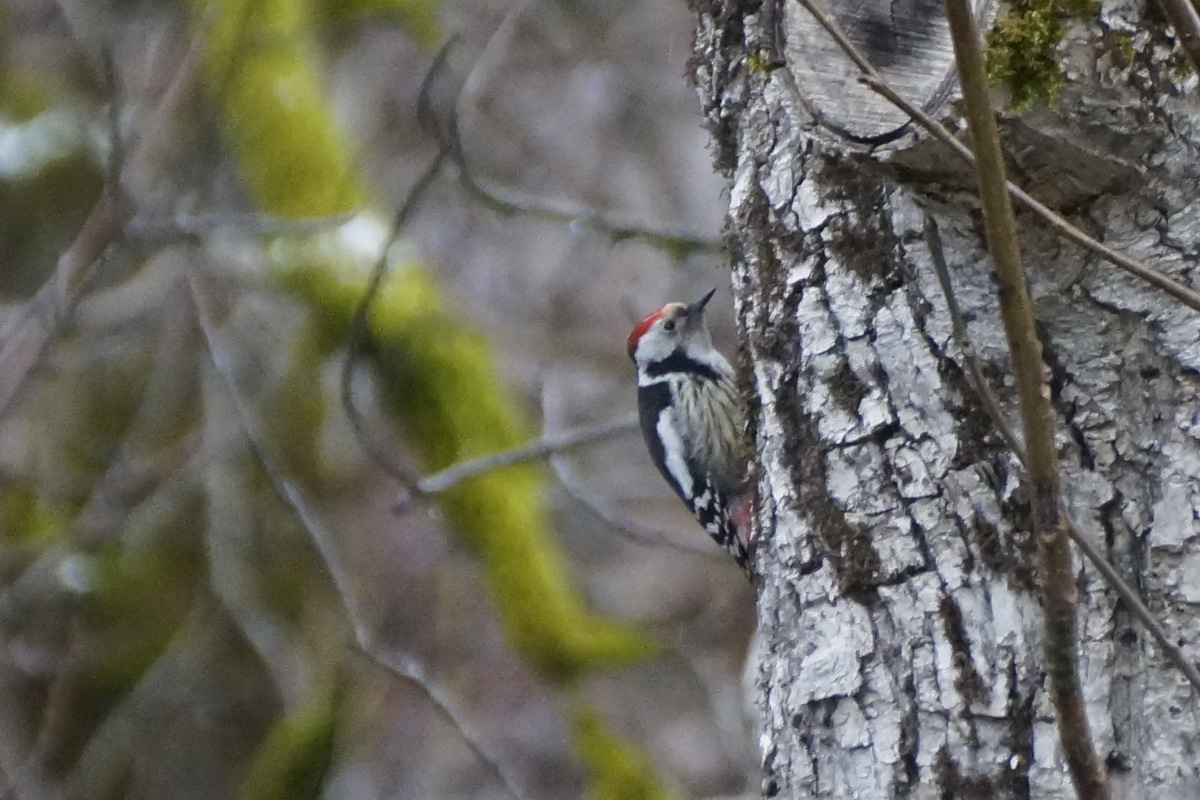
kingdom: Animalia
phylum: Chordata
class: Aves
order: Piciformes
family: Picidae
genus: Dendrocoptes
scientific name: Dendrocoptes medius
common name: Middle spotted woodpecker
